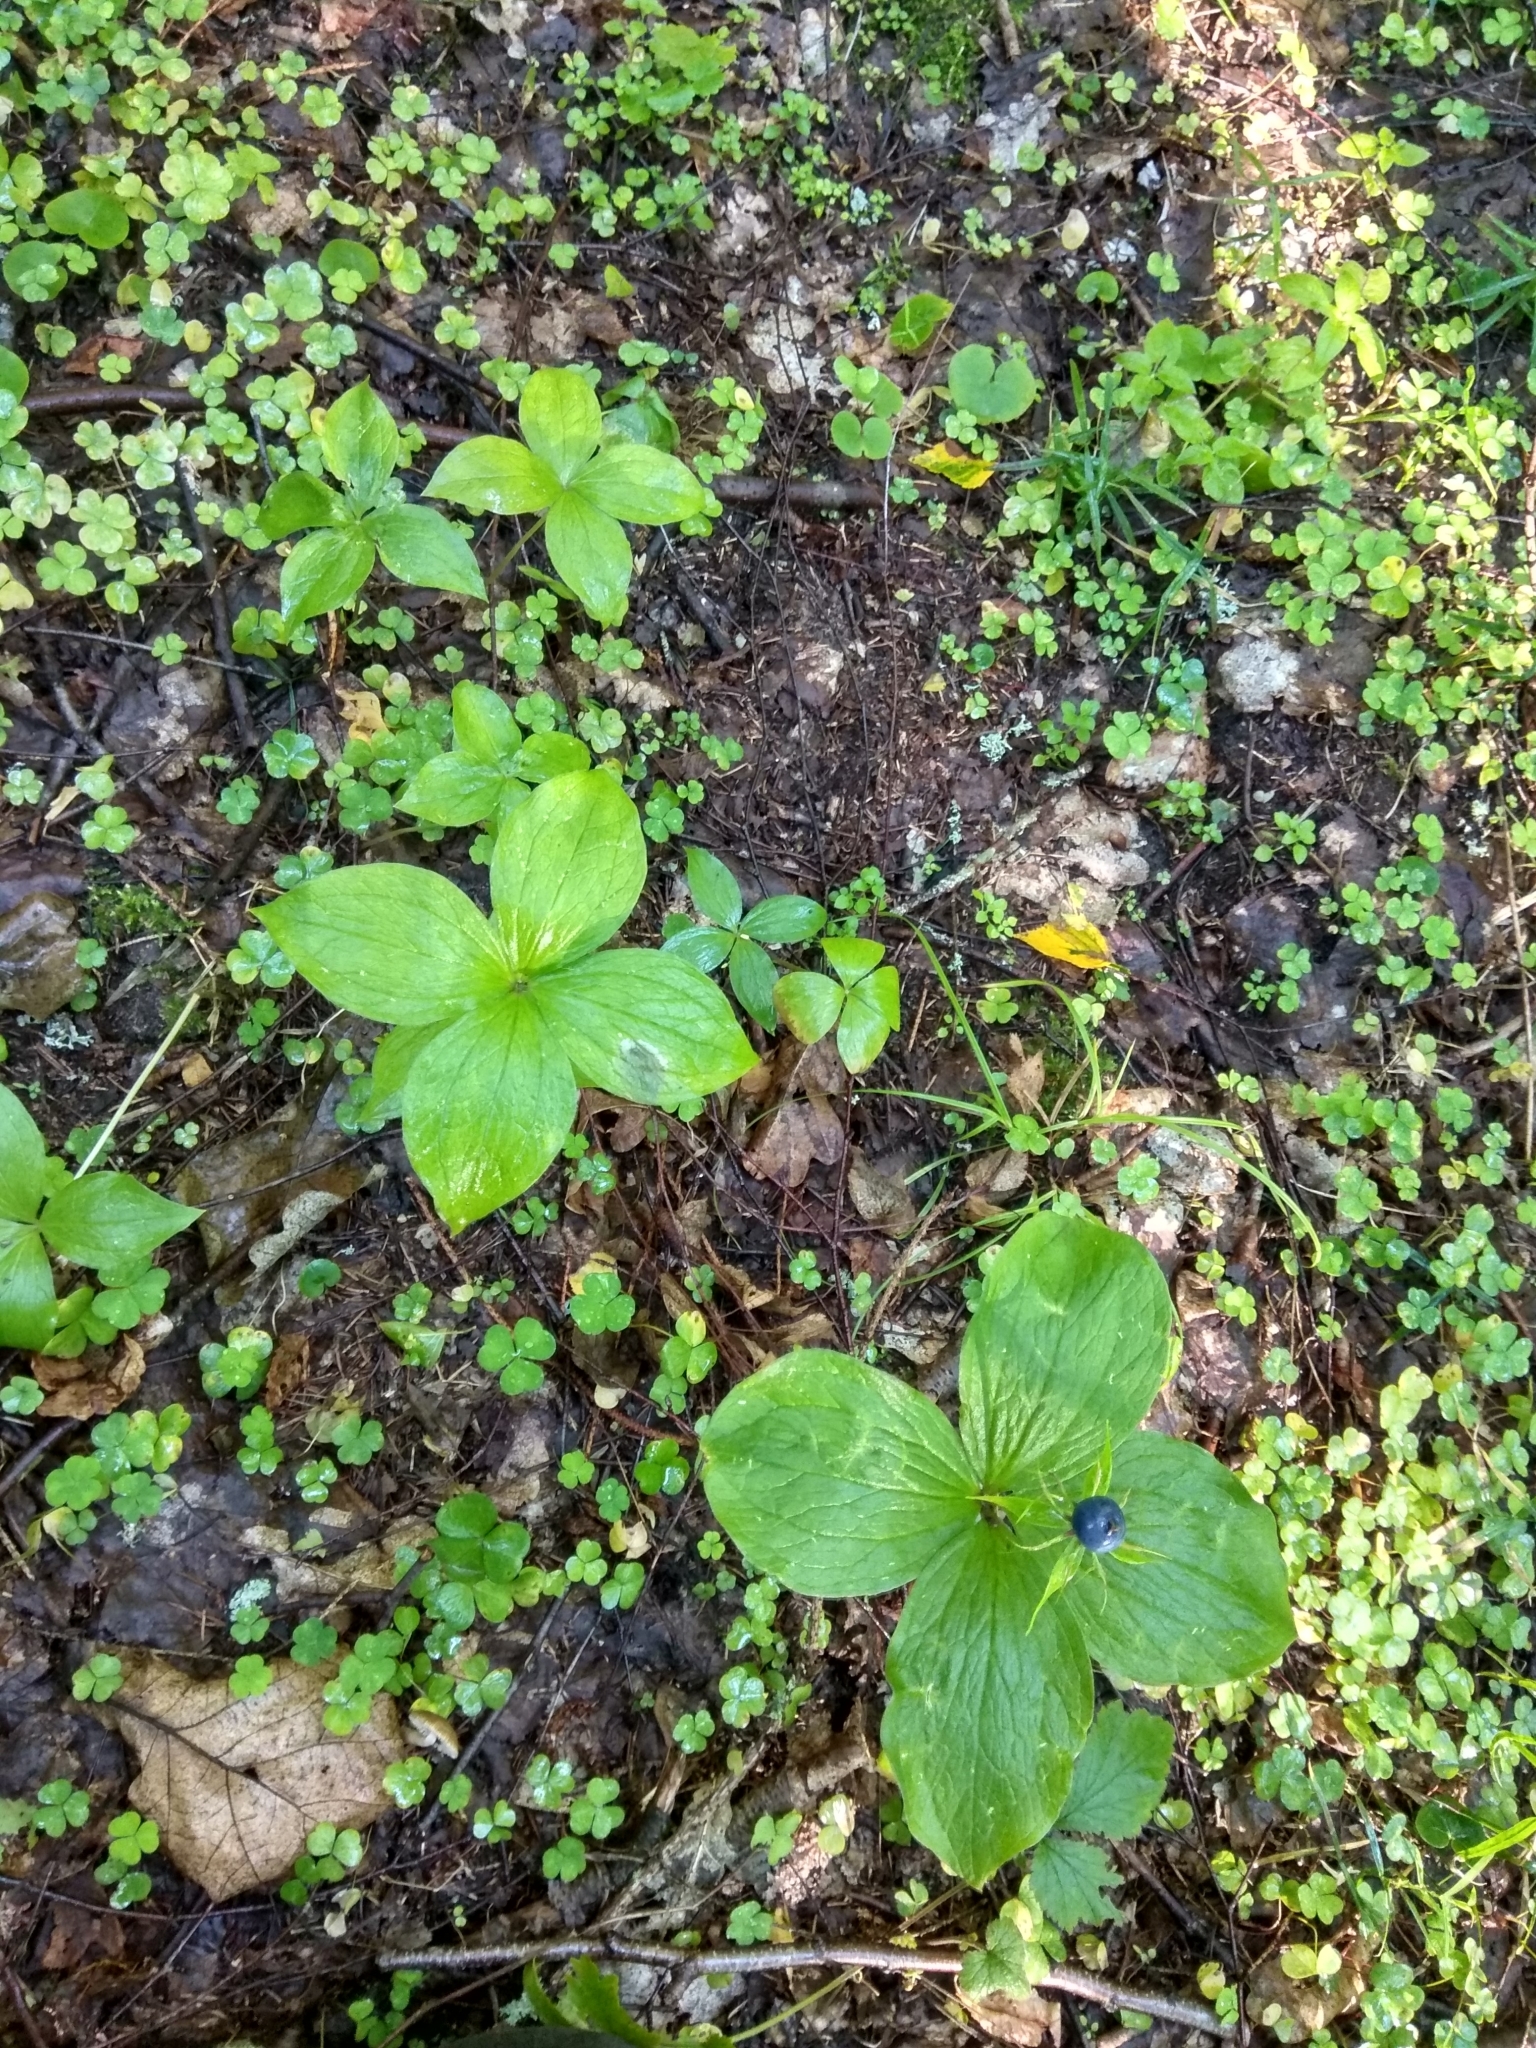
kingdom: Plantae
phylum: Tracheophyta
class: Liliopsida
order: Liliales
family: Melanthiaceae
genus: Paris
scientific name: Paris quadrifolia
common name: Herb-paris
